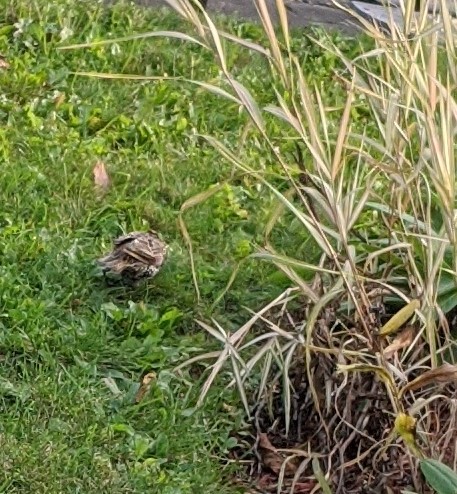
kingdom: Animalia
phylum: Chordata
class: Aves
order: Passeriformes
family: Sturnidae
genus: Sturnus
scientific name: Sturnus vulgaris
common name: Common starling
